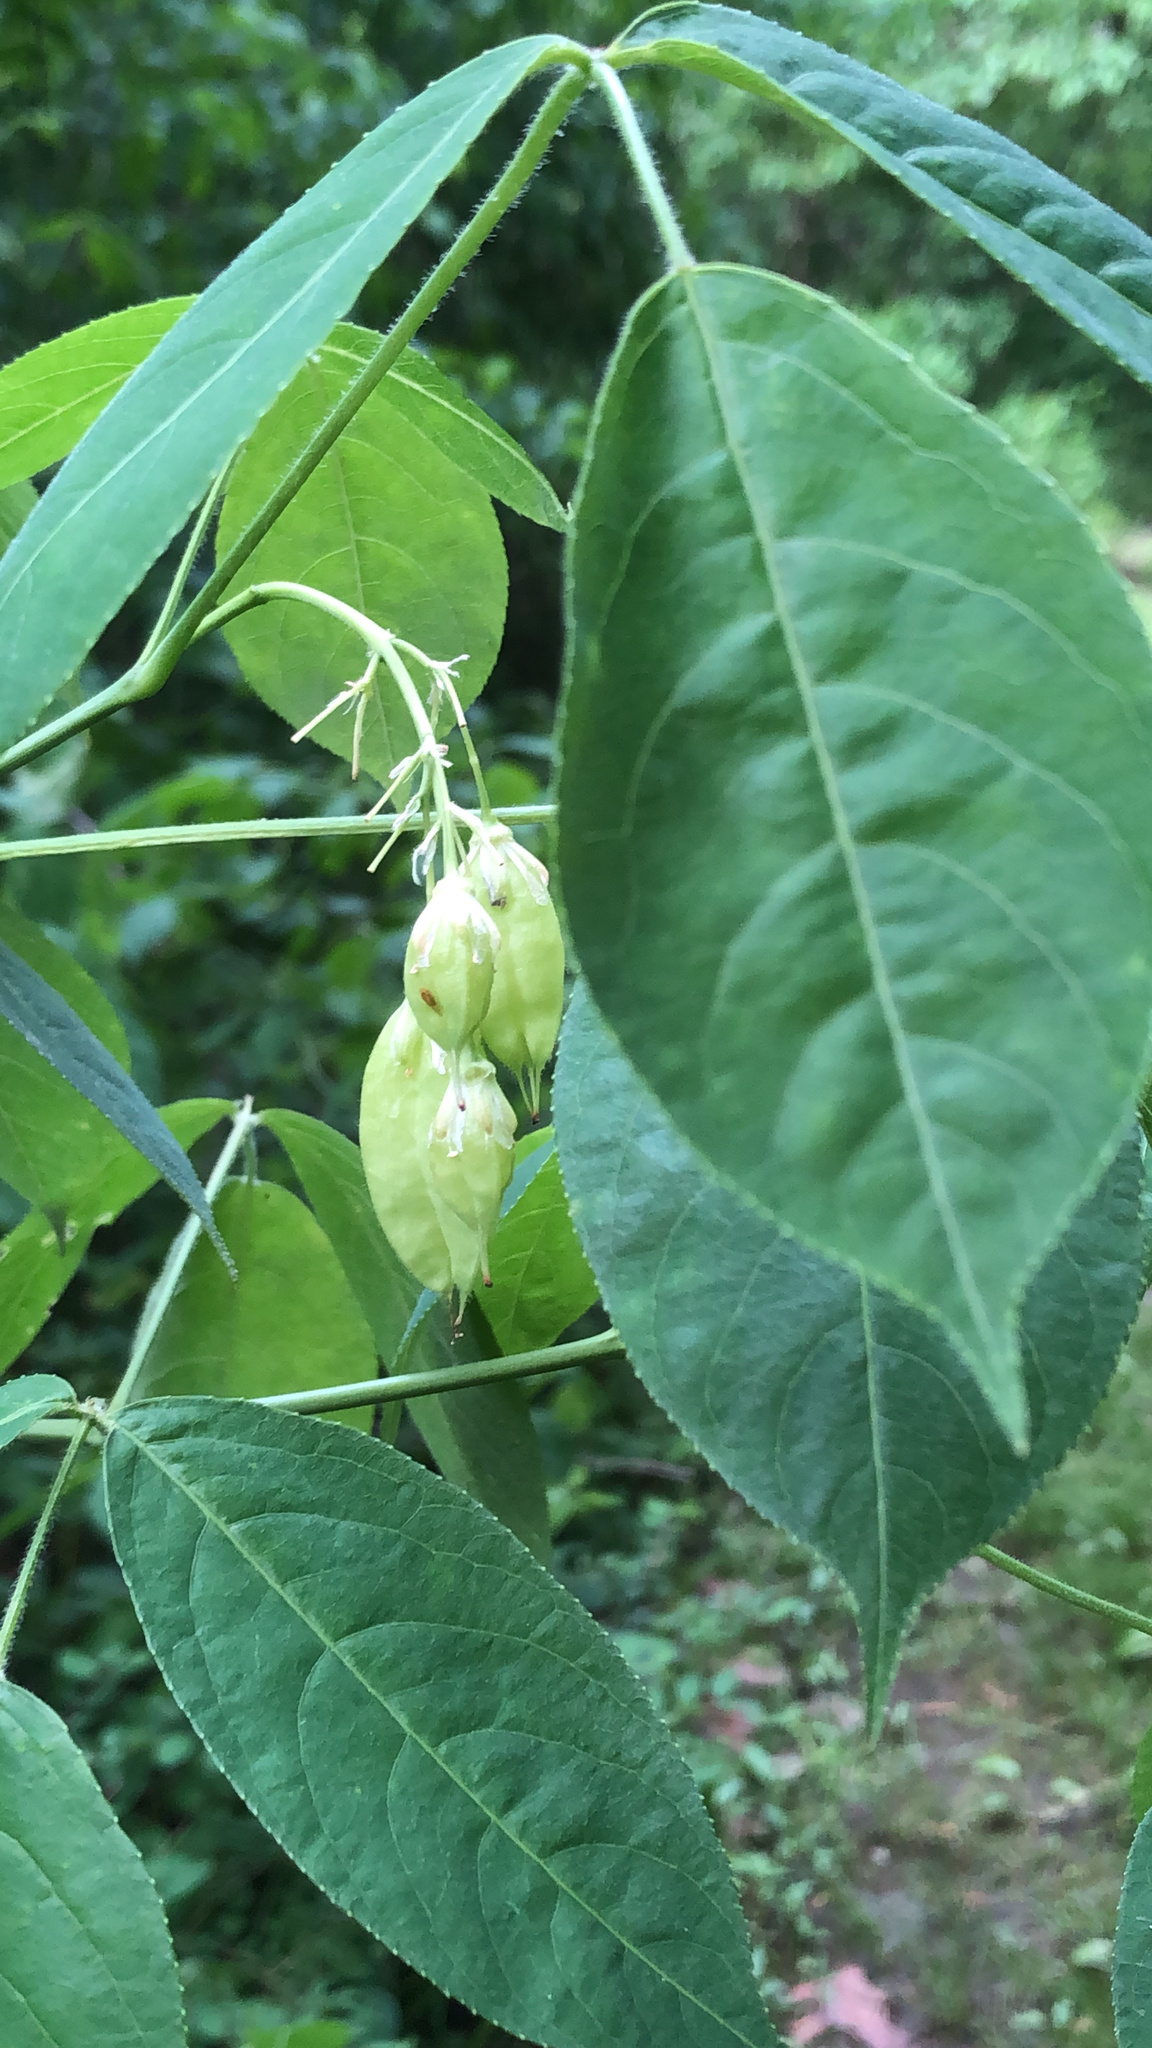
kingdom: Plantae
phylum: Tracheophyta
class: Magnoliopsida
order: Crossosomatales
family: Staphyleaceae
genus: Staphylea
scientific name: Staphylea trifolia
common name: American bladdernut
